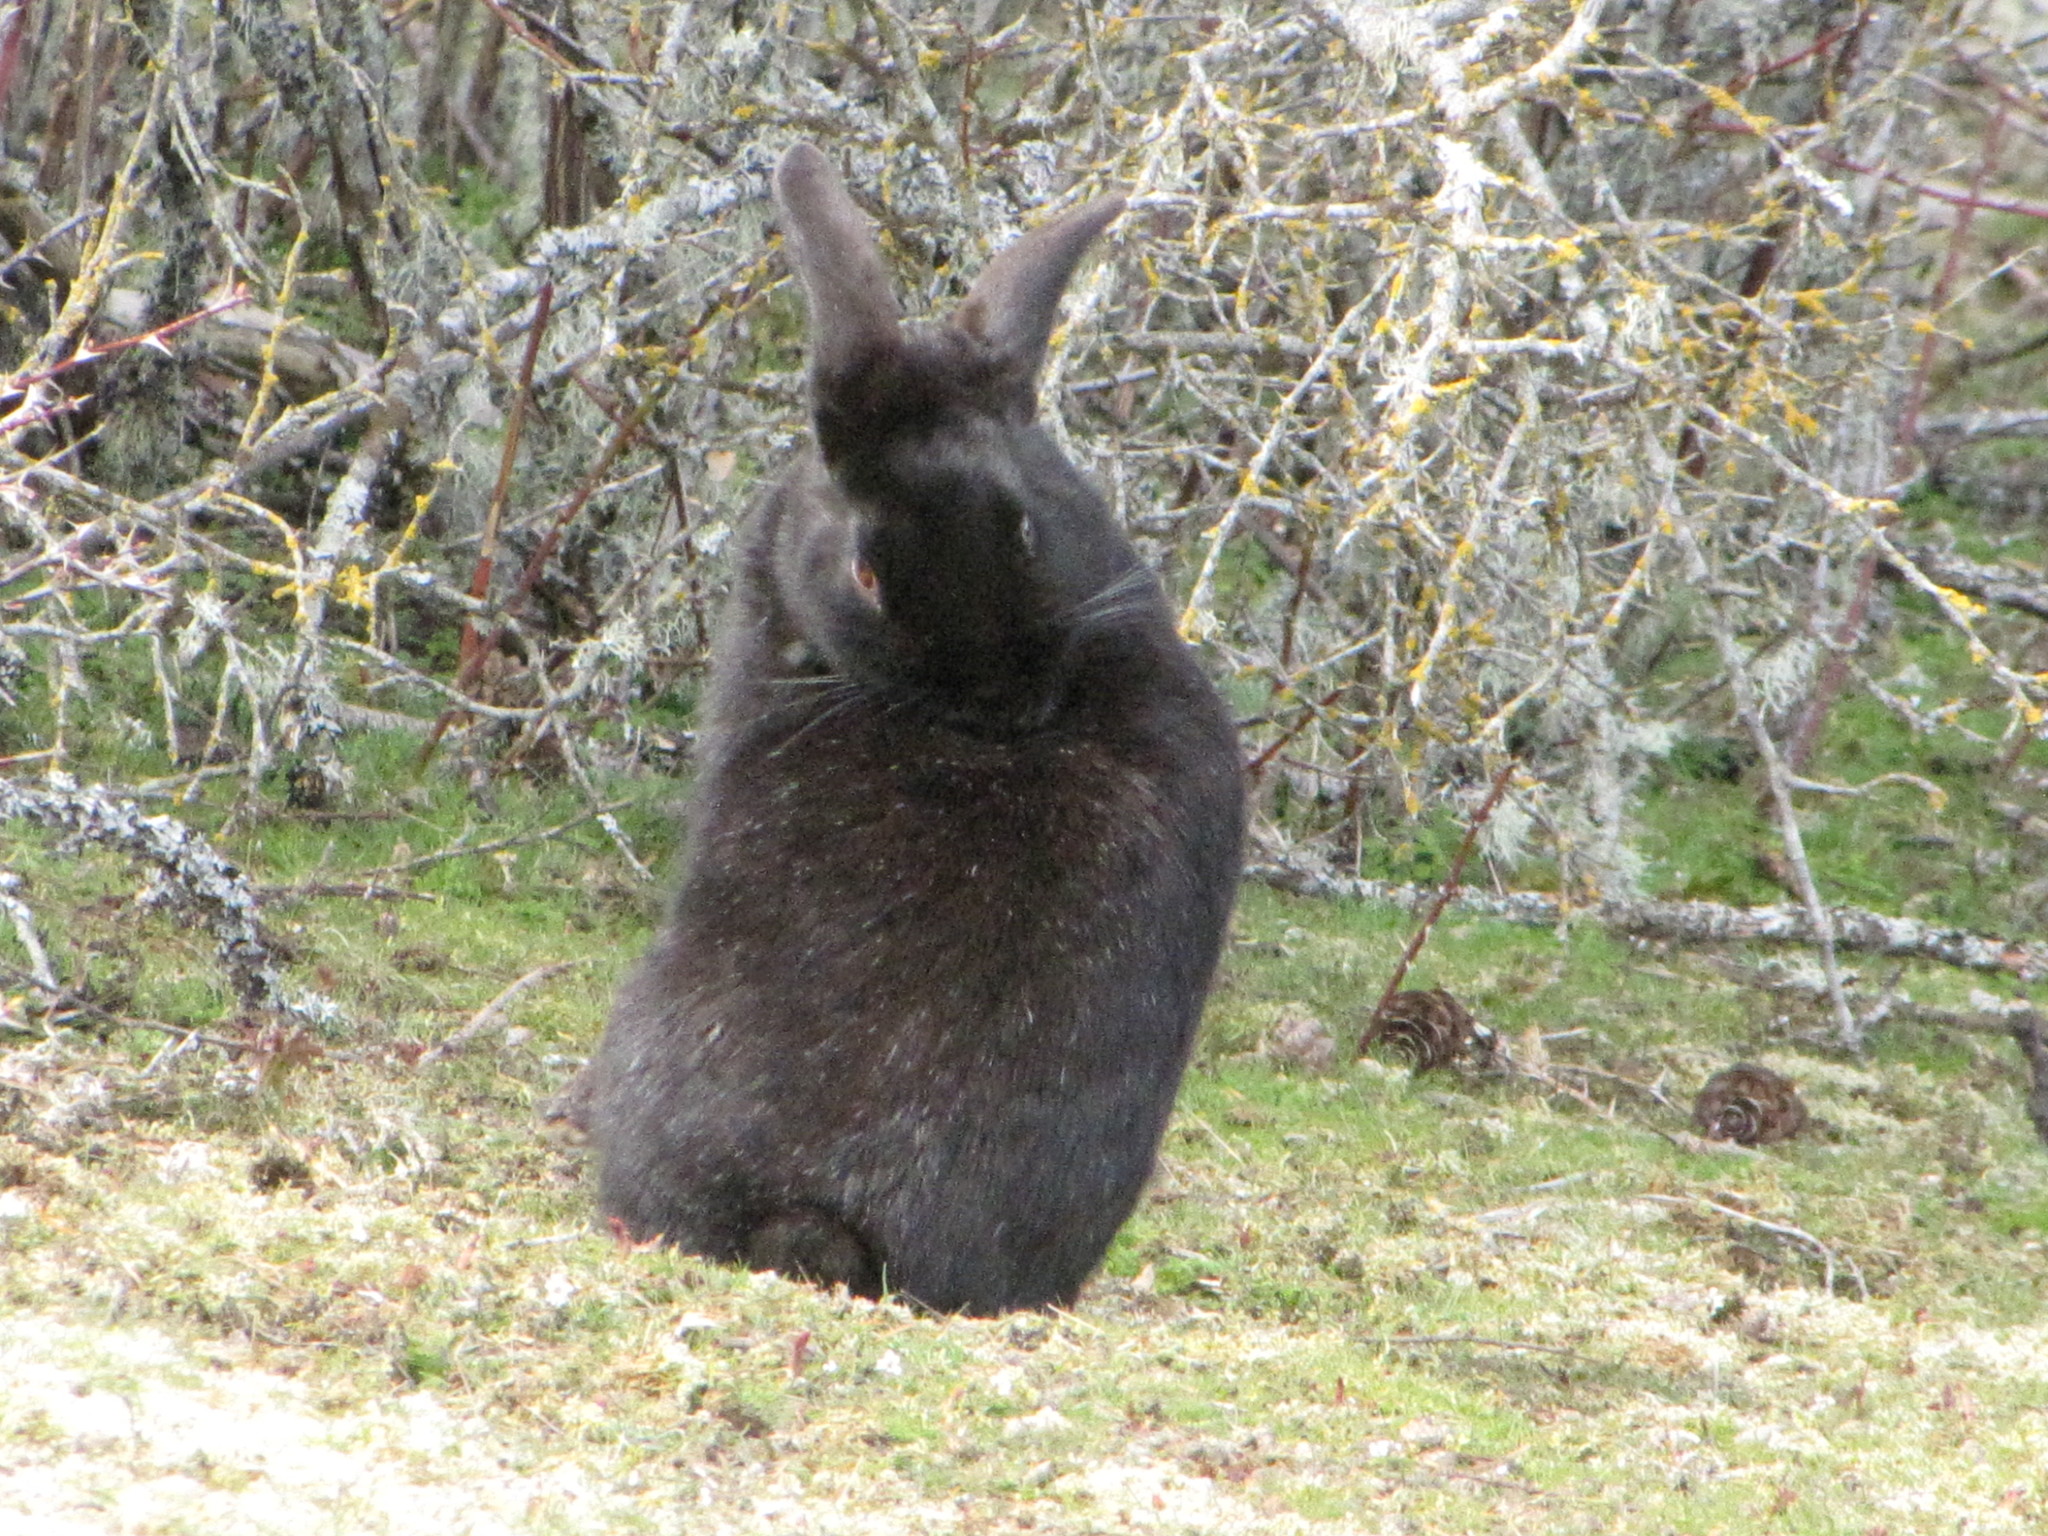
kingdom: Animalia
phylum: Chordata
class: Mammalia
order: Lagomorpha
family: Leporidae
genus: Oryctolagus
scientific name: Oryctolagus cuniculus
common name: European rabbit
